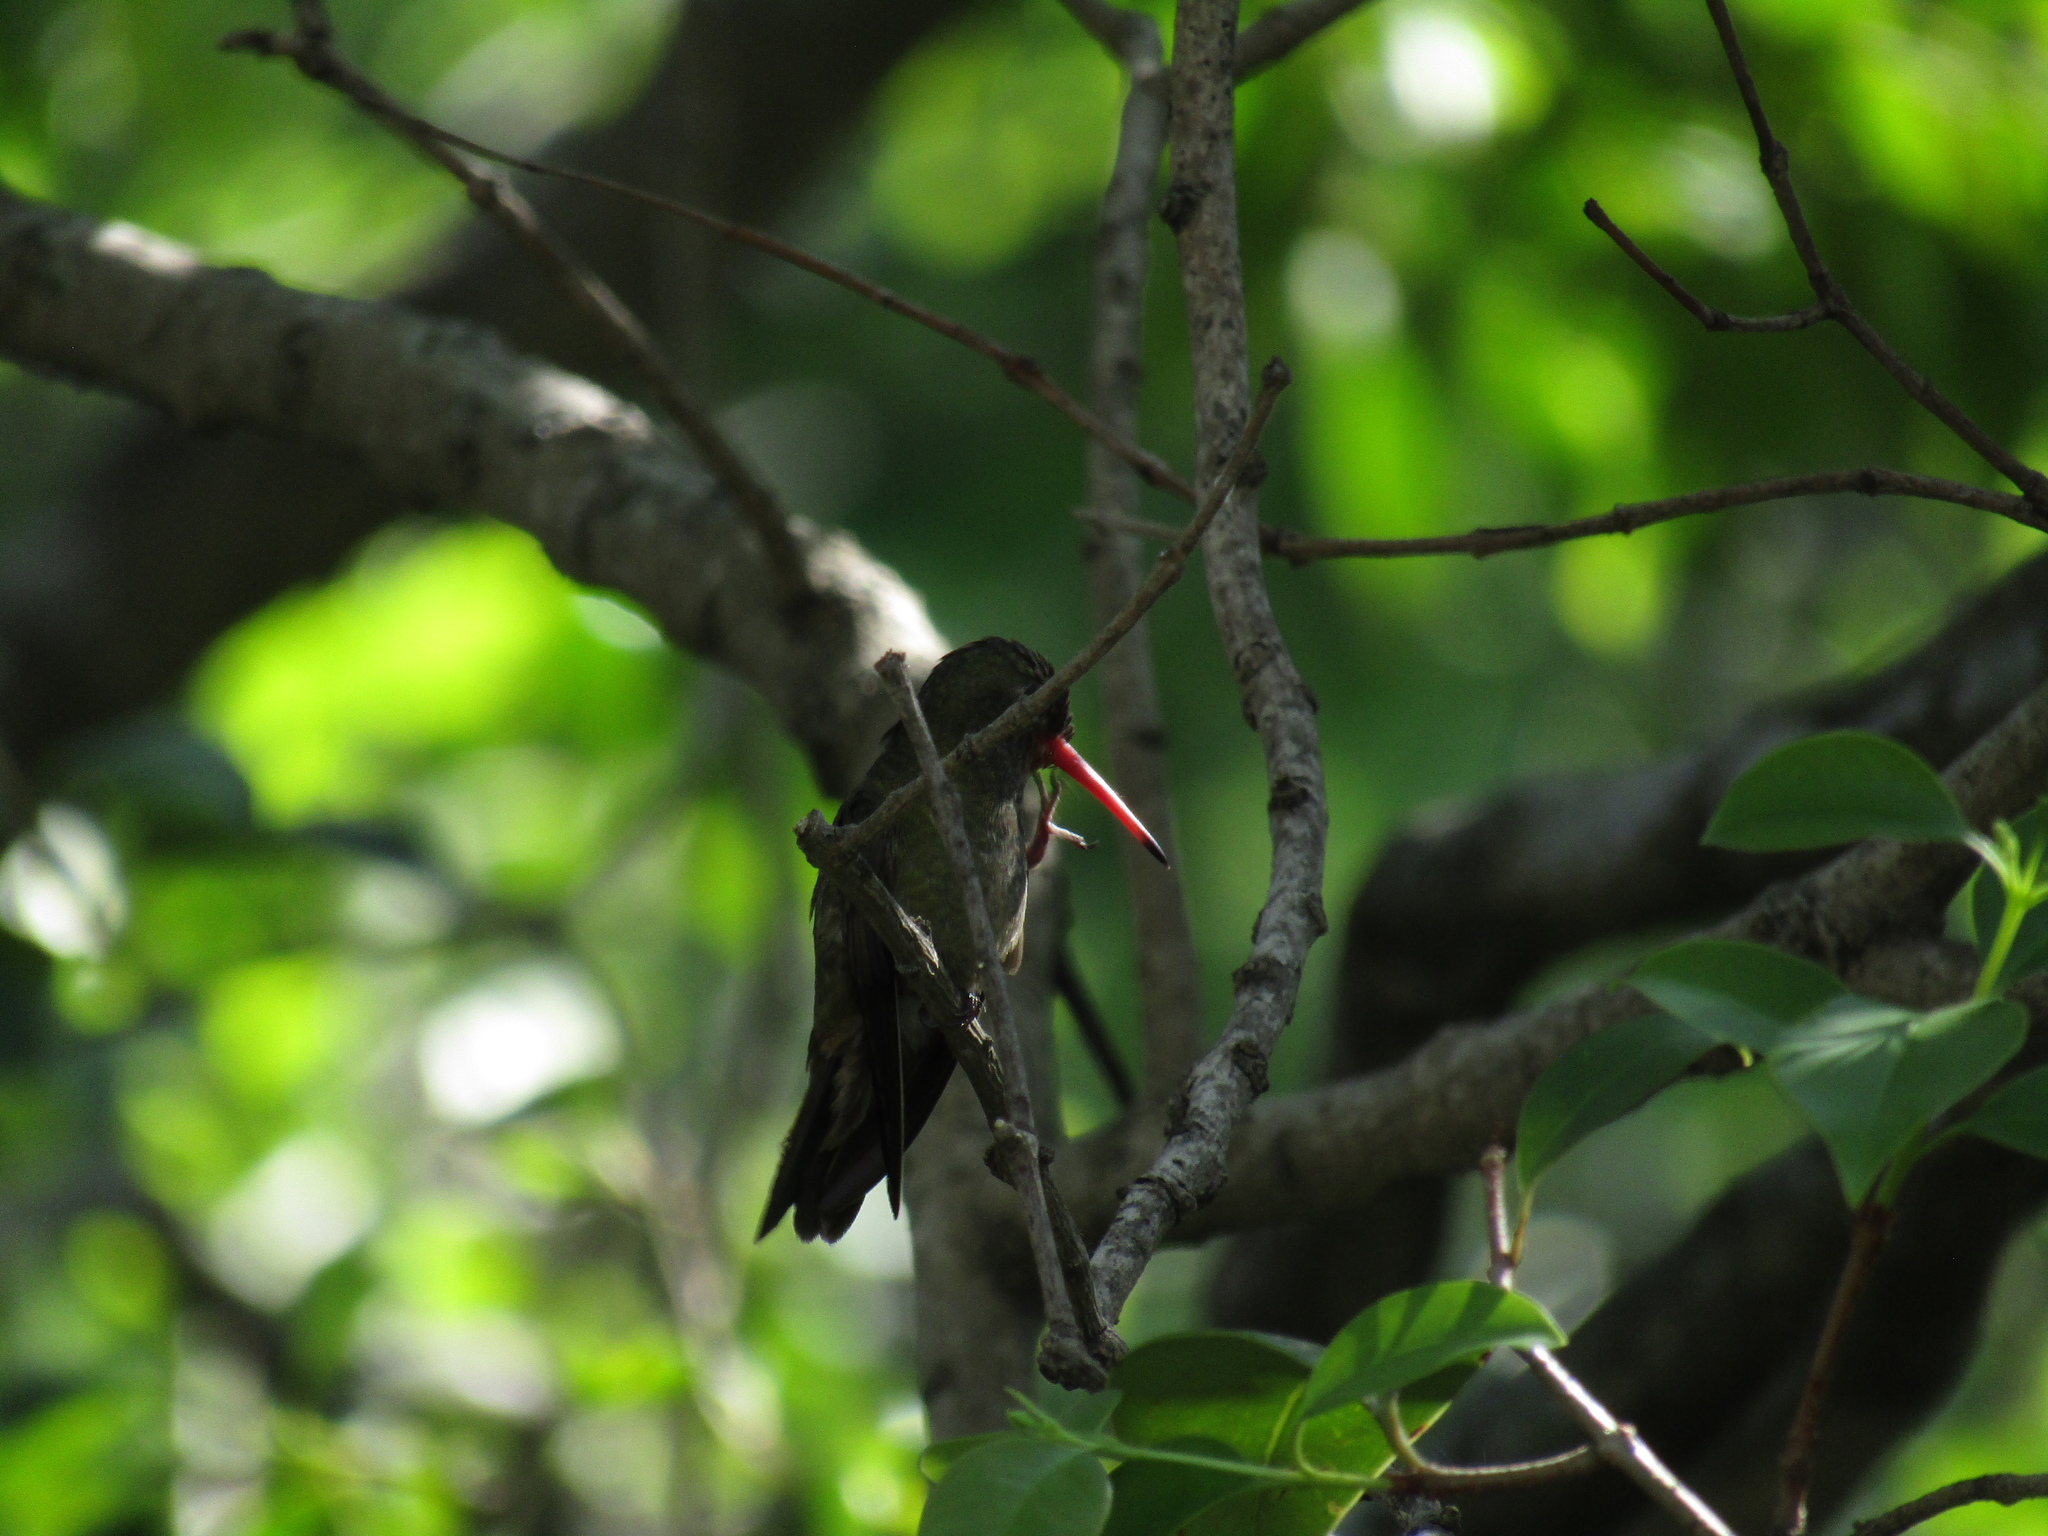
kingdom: Animalia
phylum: Chordata
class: Aves
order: Apodiformes
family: Trochilidae
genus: Hylocharis
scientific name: Hylocharis chrysura
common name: Gilded sapphire
